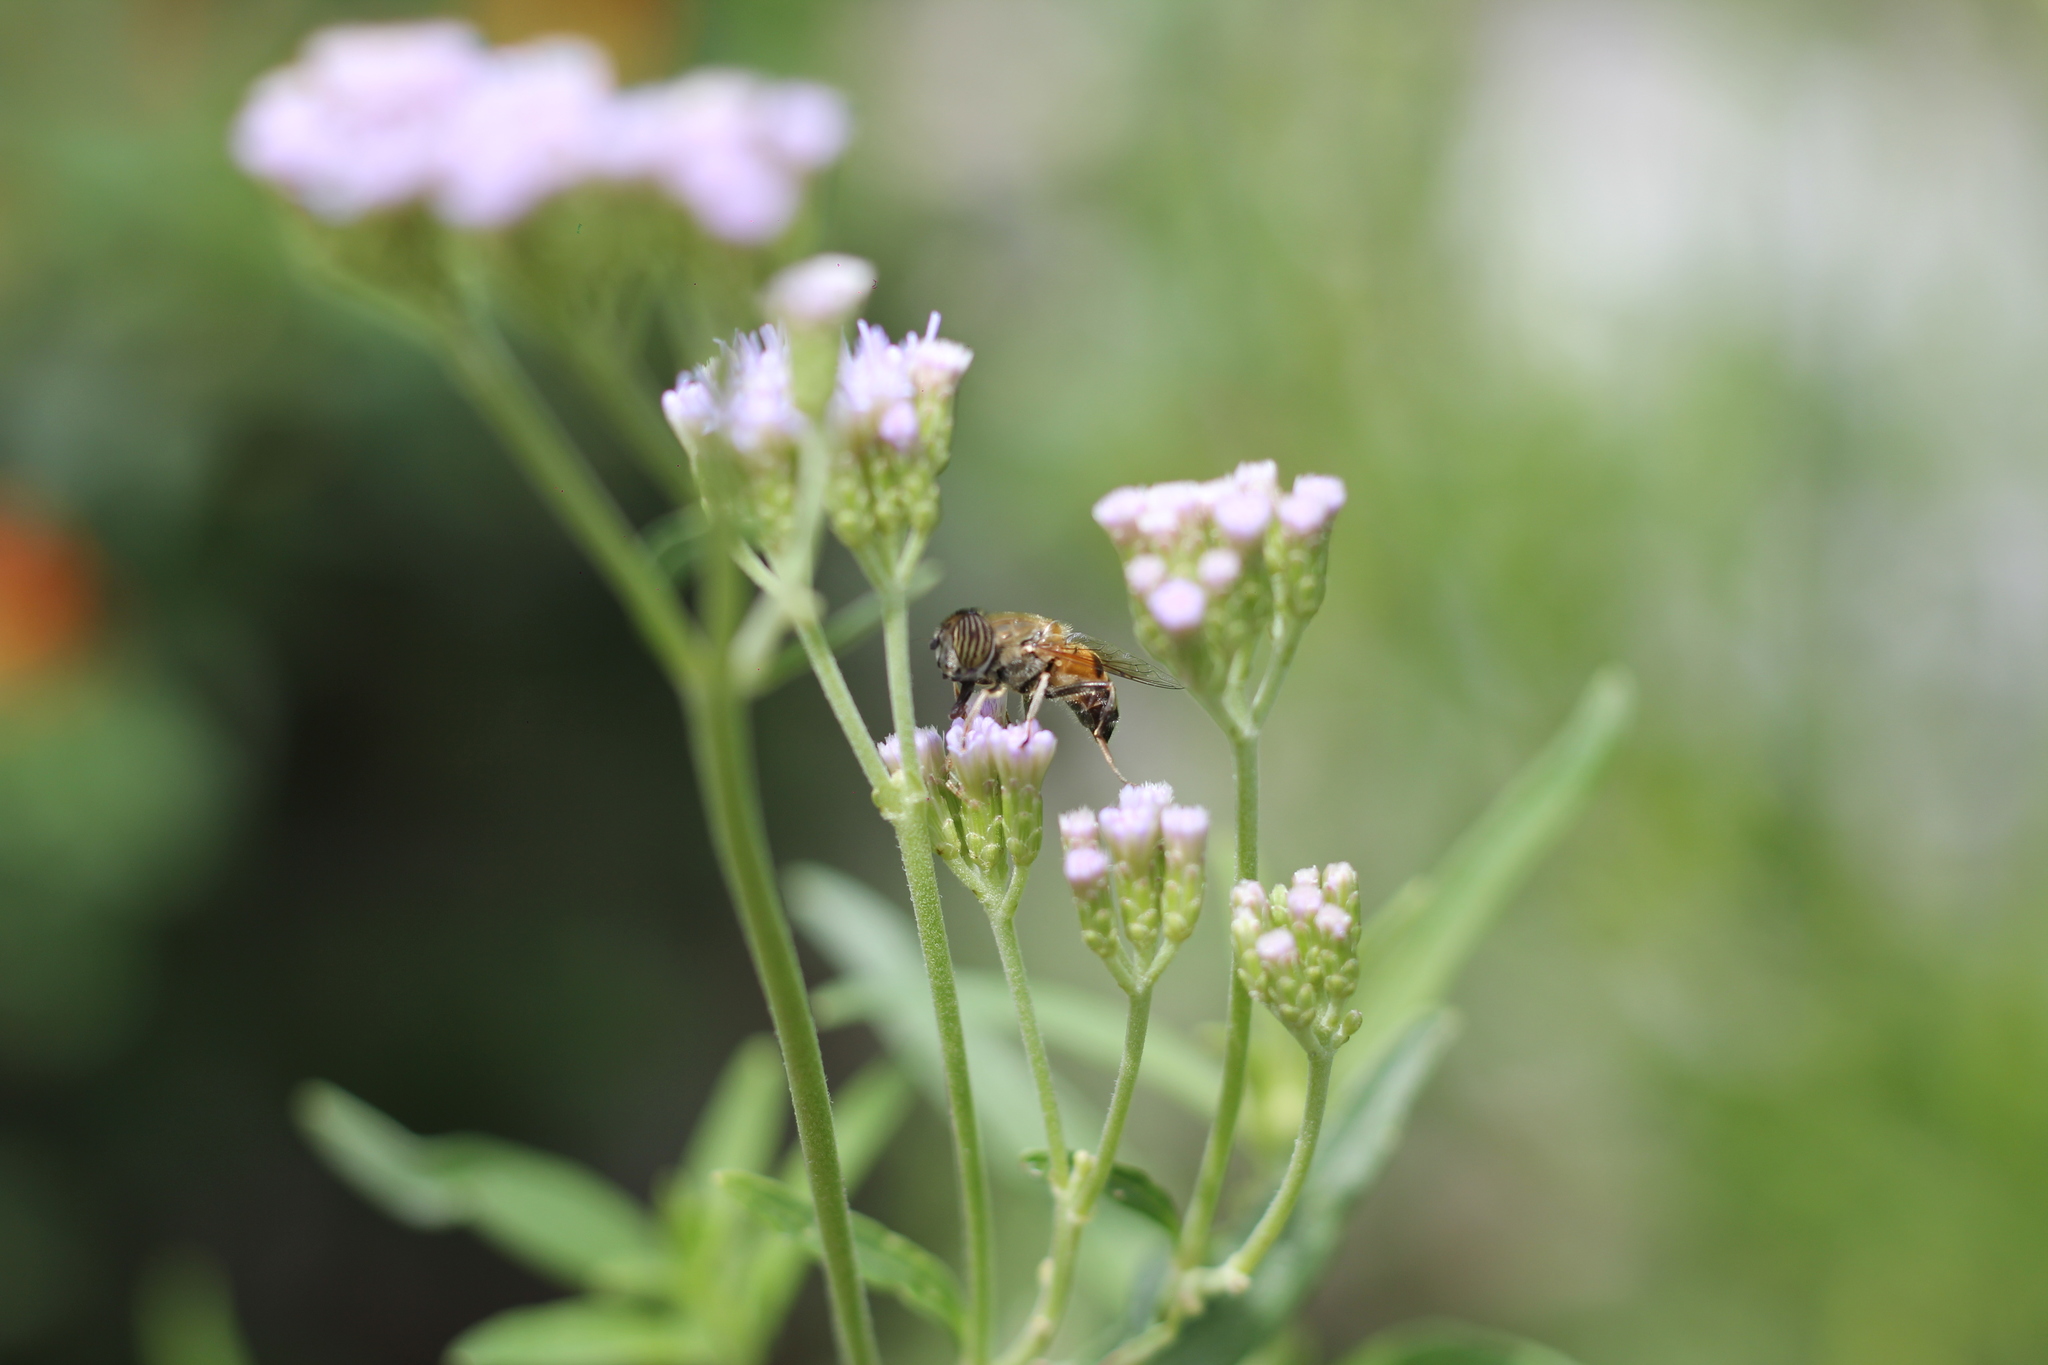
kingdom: Animalia
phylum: Arthropoda
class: Insecta
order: Diptera
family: Syrphidae
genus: Eristalinus
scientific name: Eristalinus taeniops
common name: Syrphid fly
